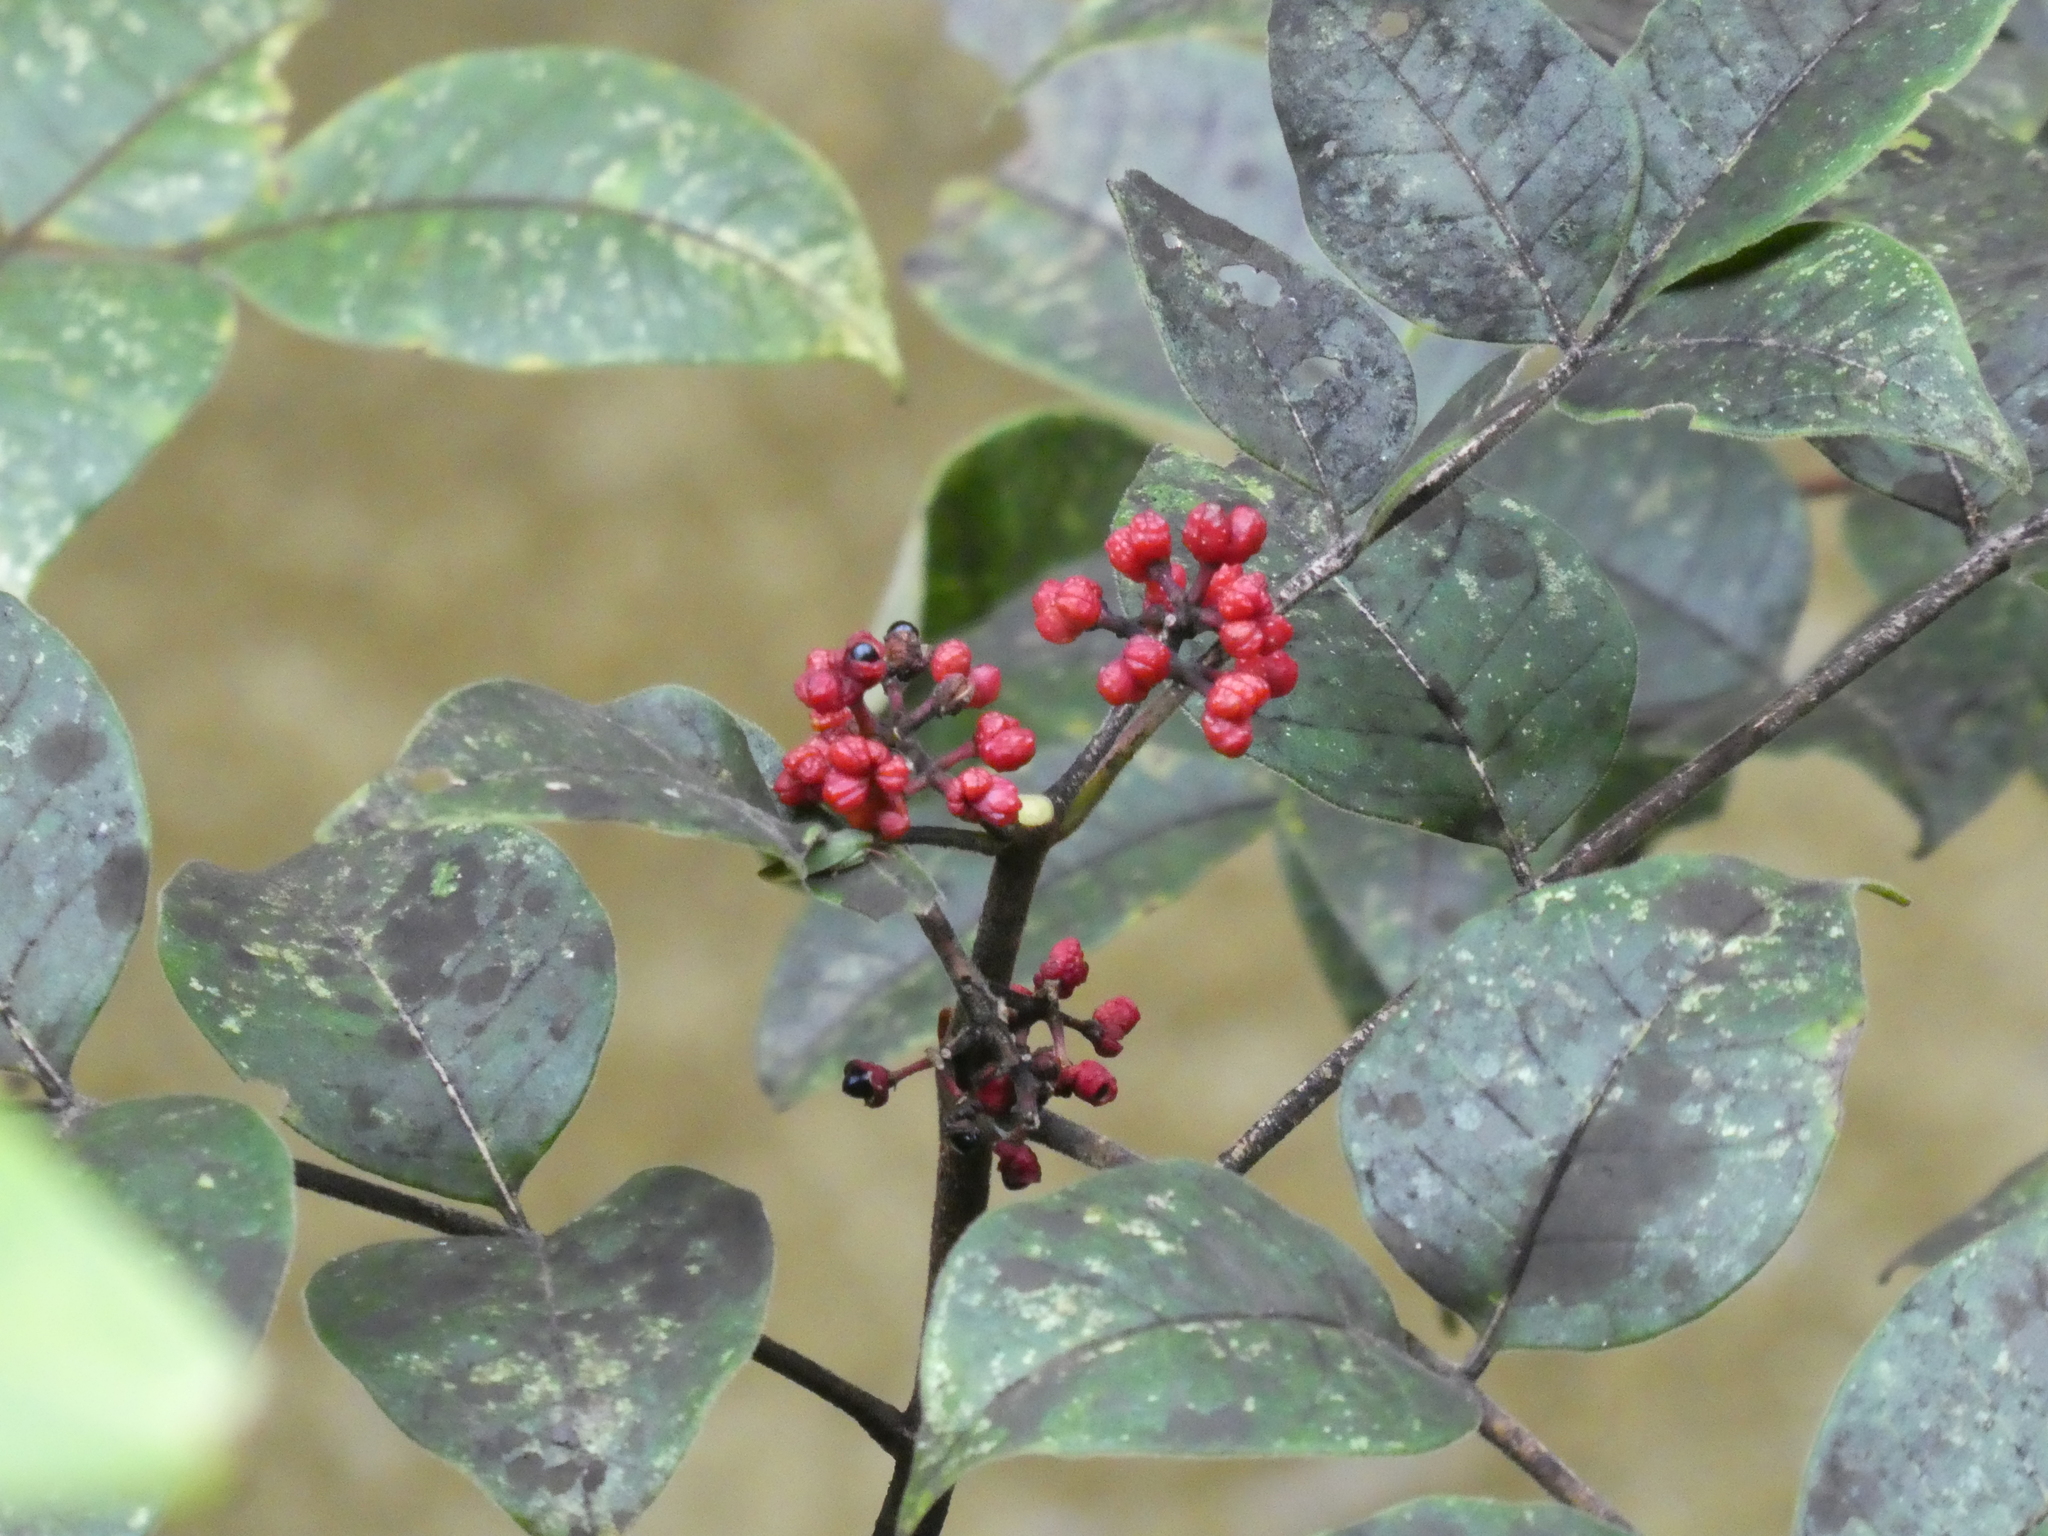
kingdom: Plantae
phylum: Tracheophyta
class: Magnoliopsida
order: Sapindales
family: Rutaceae
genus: Tetradium
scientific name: Tetradium austrosinense
